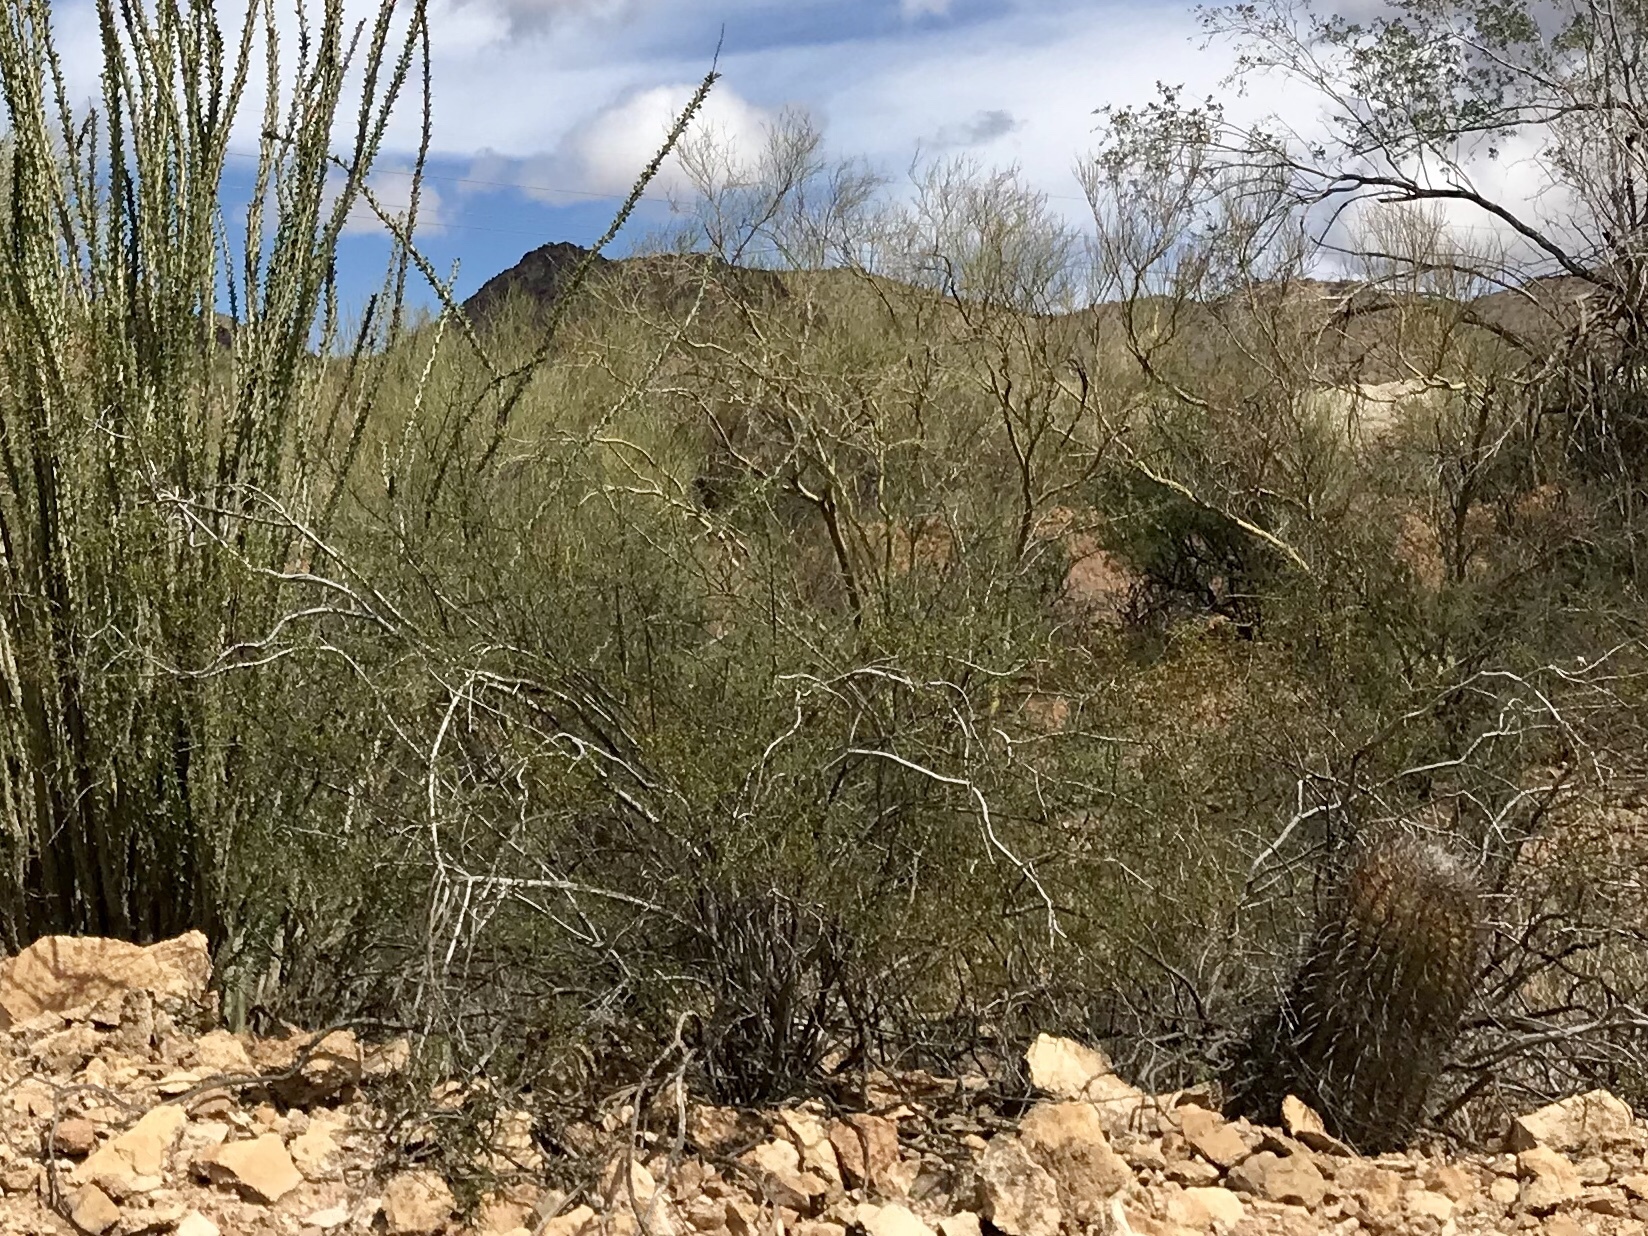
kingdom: Plantae
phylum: Tracheophyta
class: Magnoliopsida
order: Zygophyllales
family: Zygophyllaceae
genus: Larrea
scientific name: Larrea tridentata
